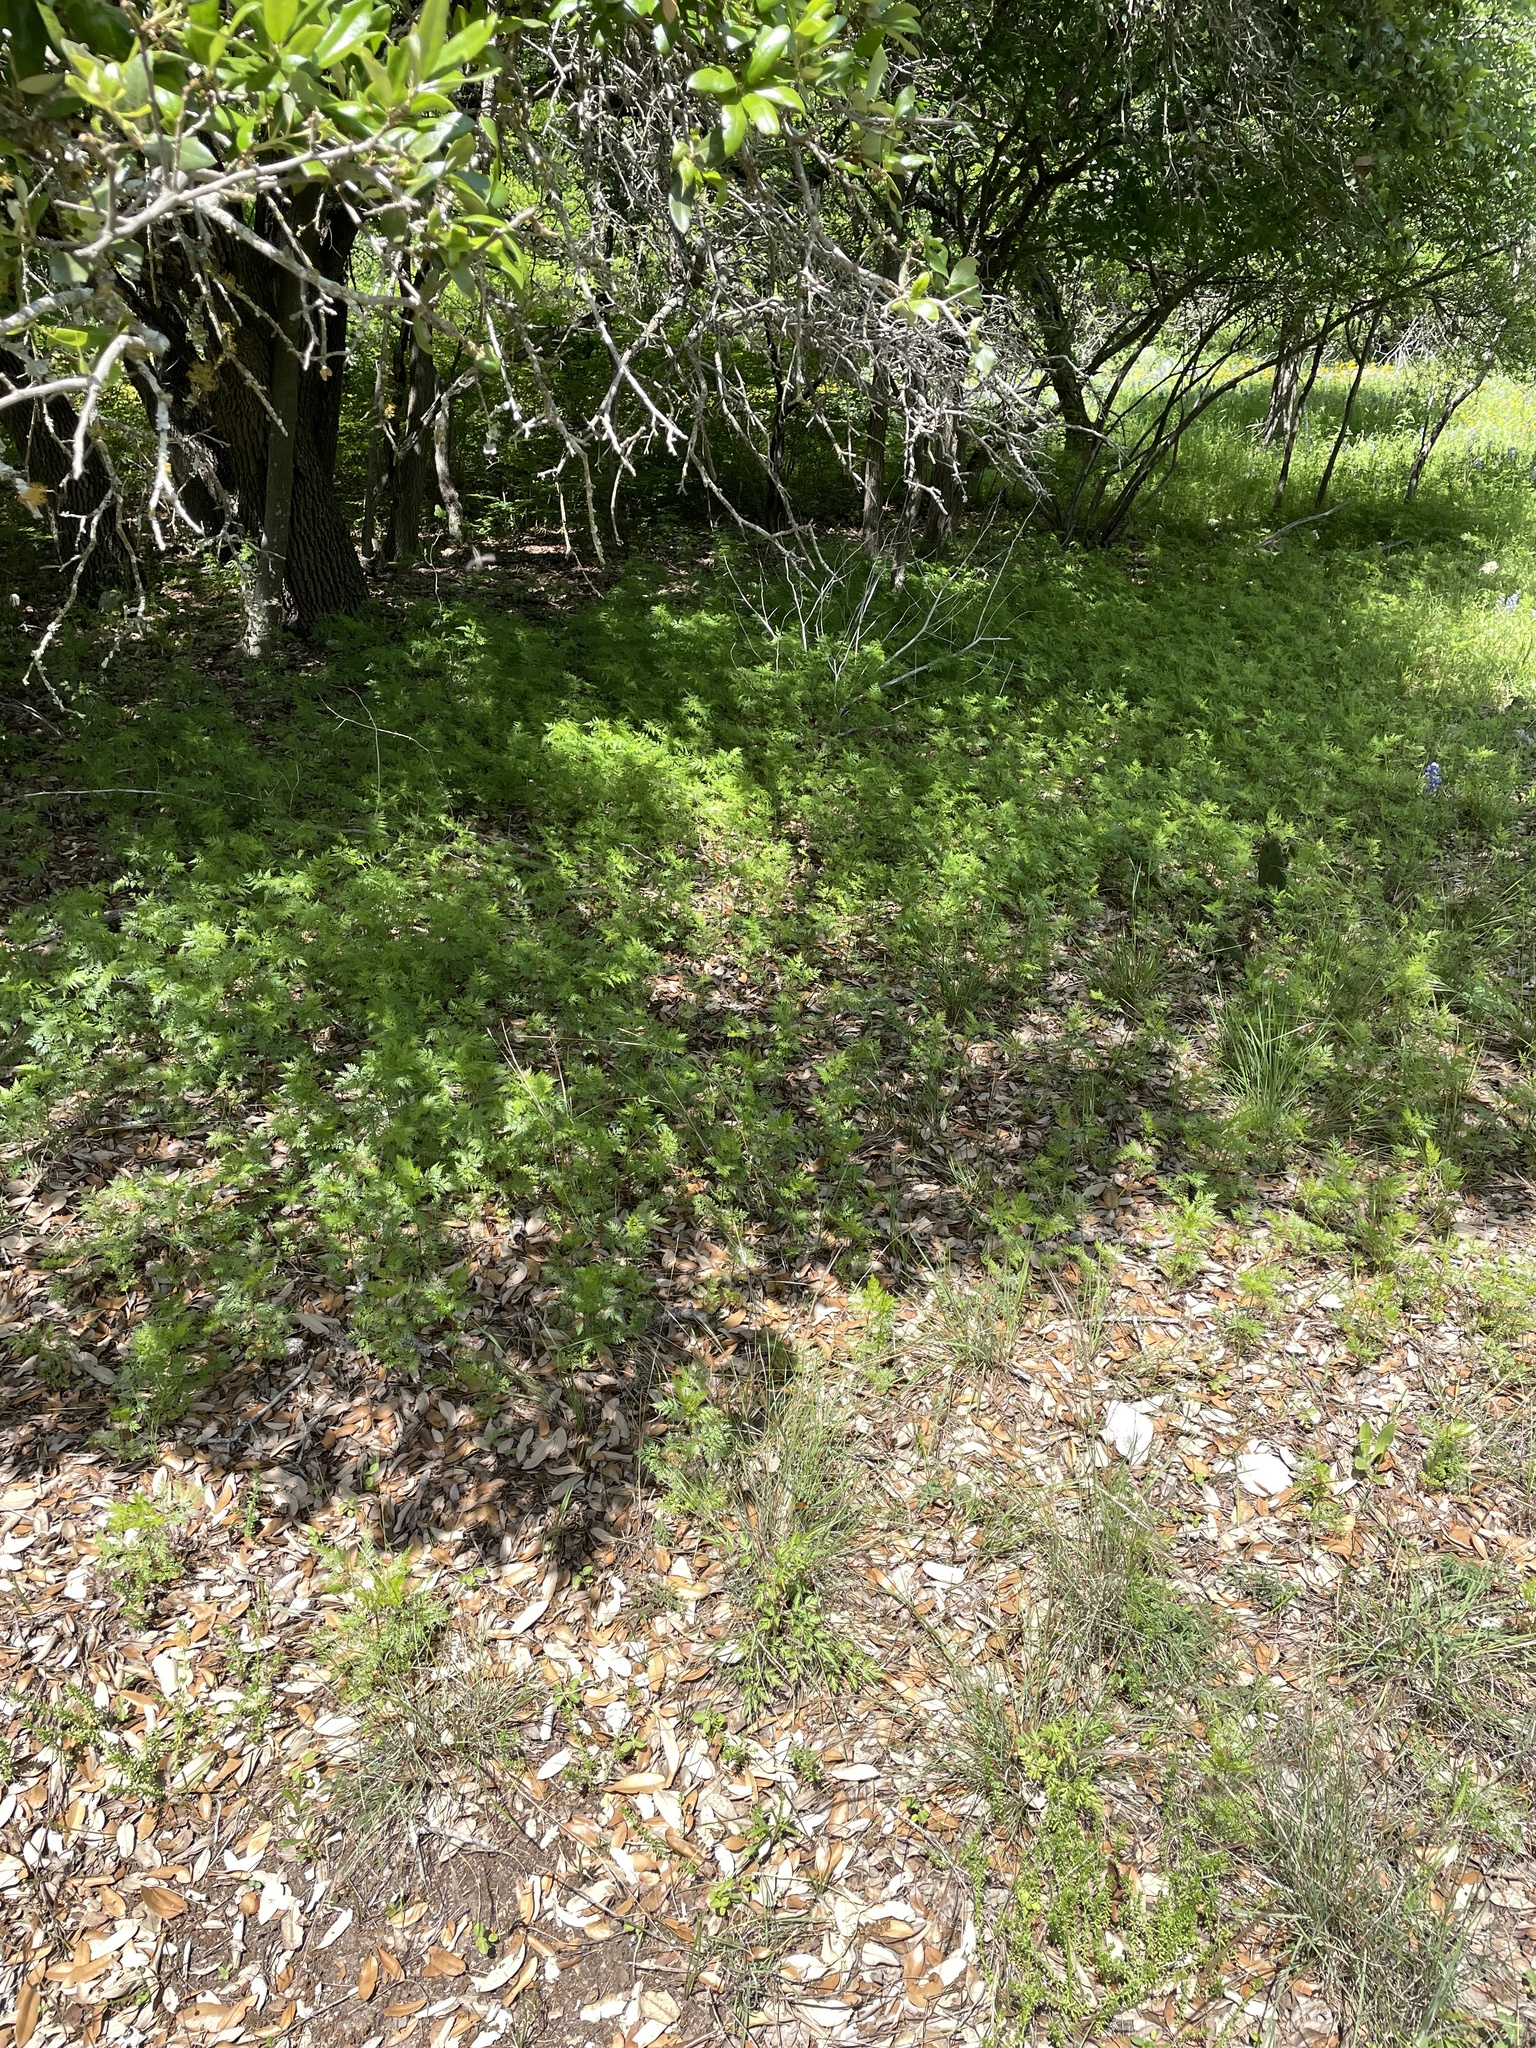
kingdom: Plantae
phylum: Tracheophyta
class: Magnoliopsida
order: Apiales
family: Apiaceae
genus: Trepocarpus
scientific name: Trepocarpus aethusae
